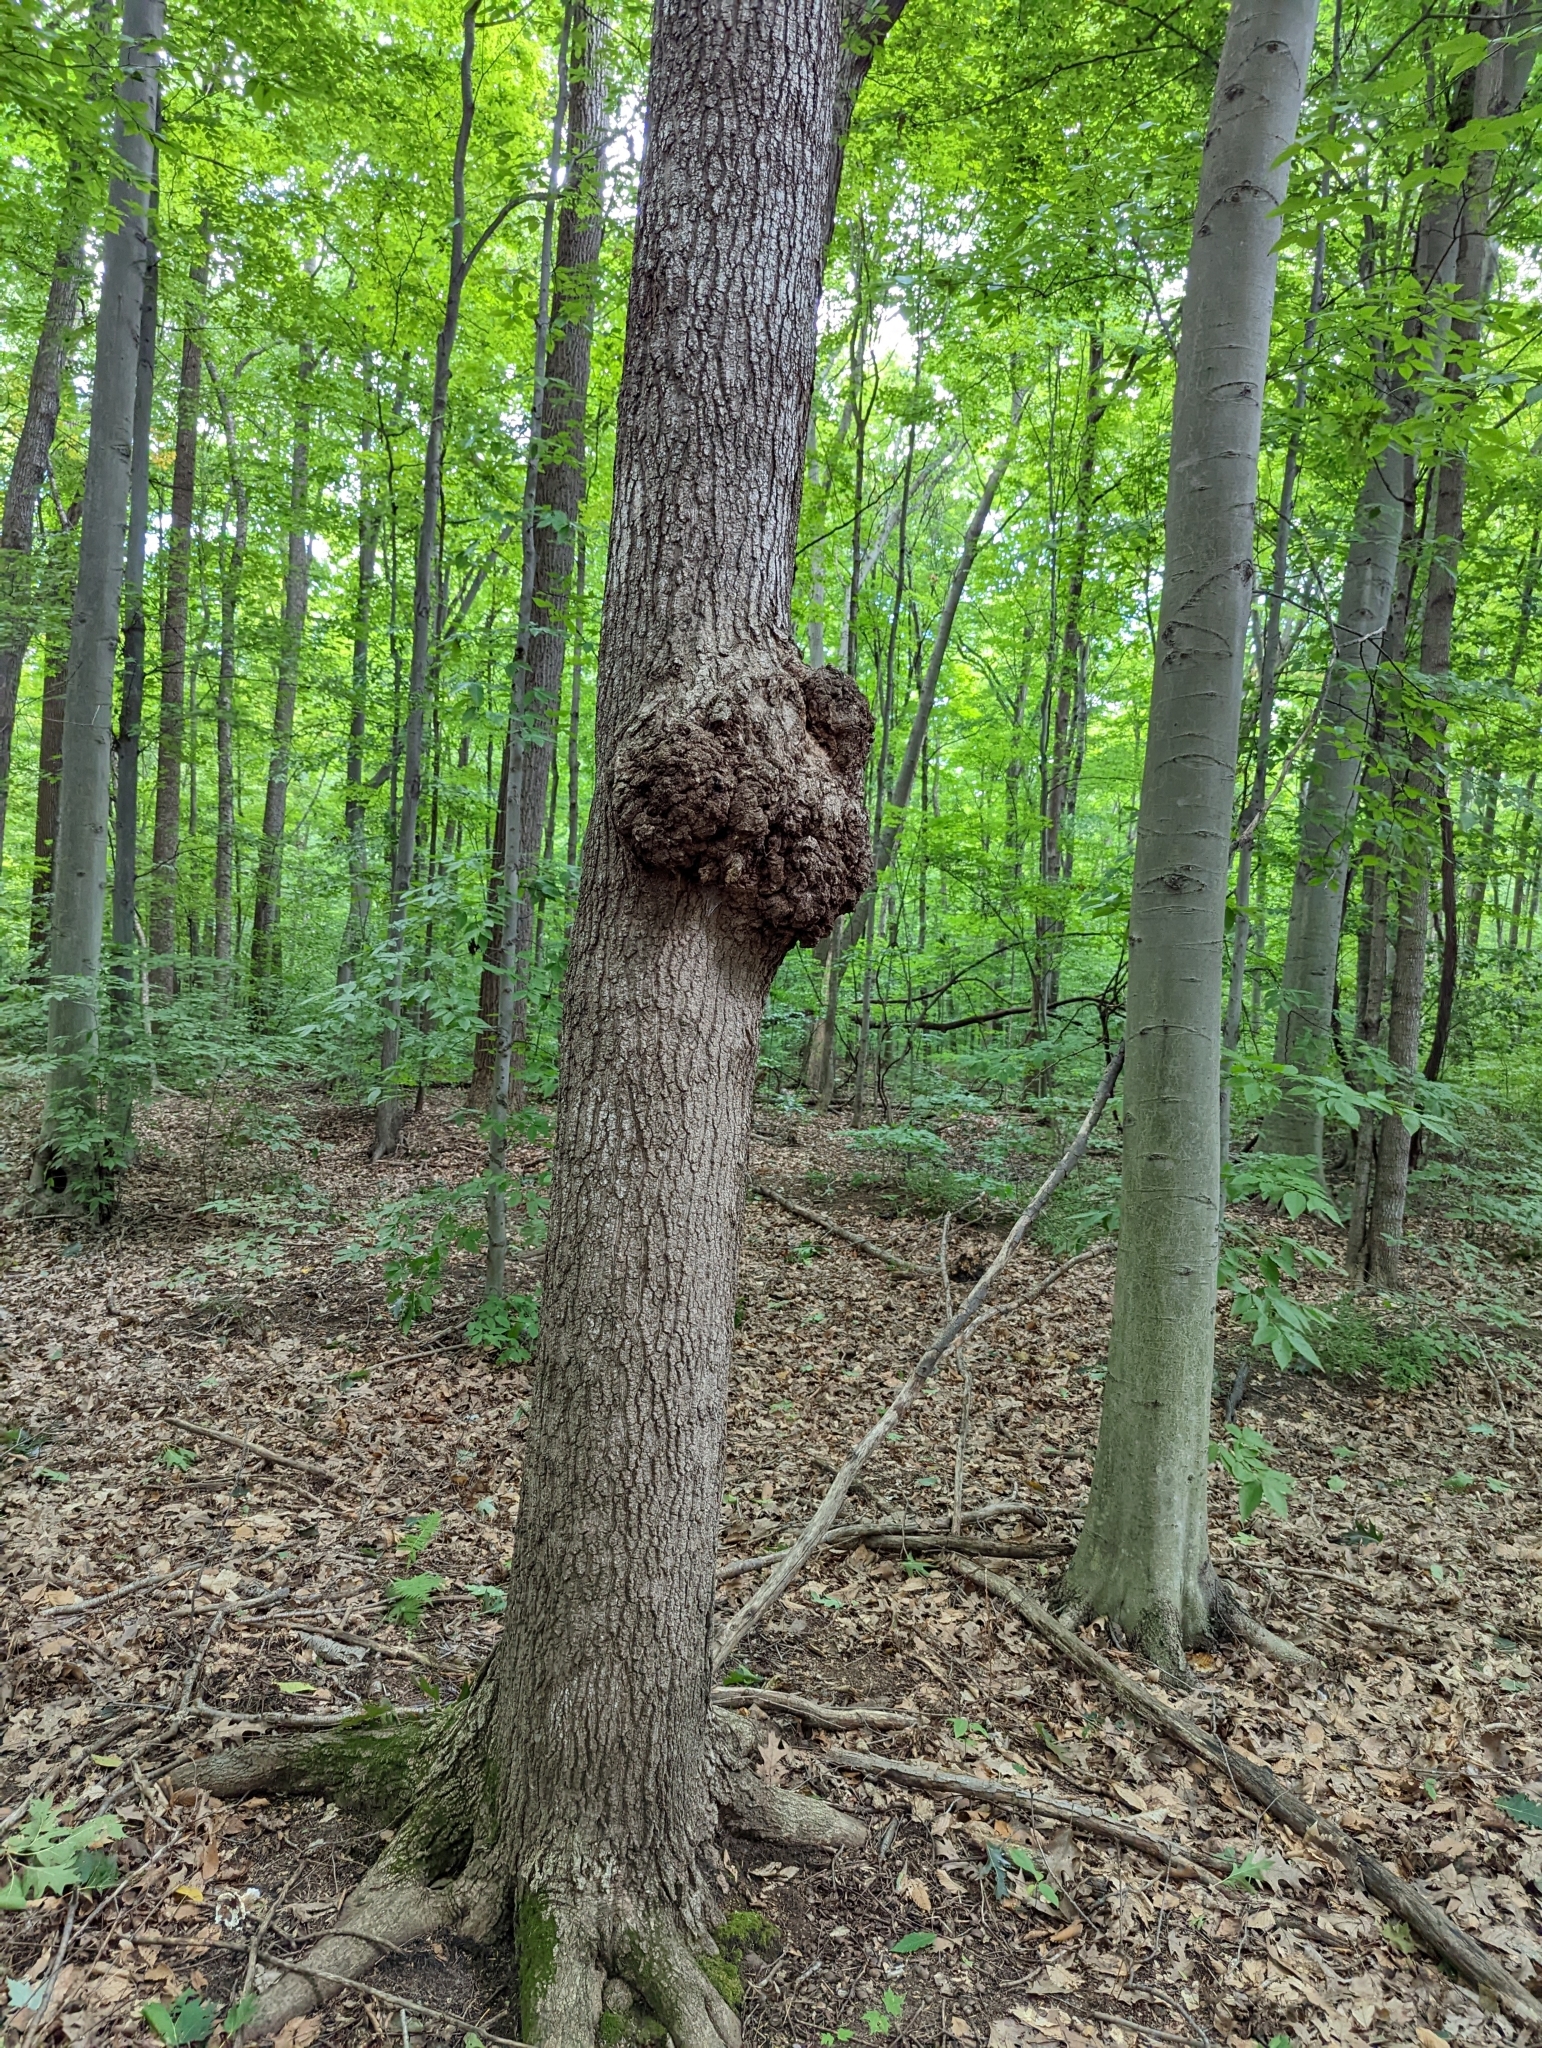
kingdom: Bacteria
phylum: Proteobacteria
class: Alphaproteobacteria
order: Rhizobiales
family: Rhizobiaceae
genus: Rhizobium
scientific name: Rhizobium Agrobacterium radiobacter
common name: Bacterial crown gall
